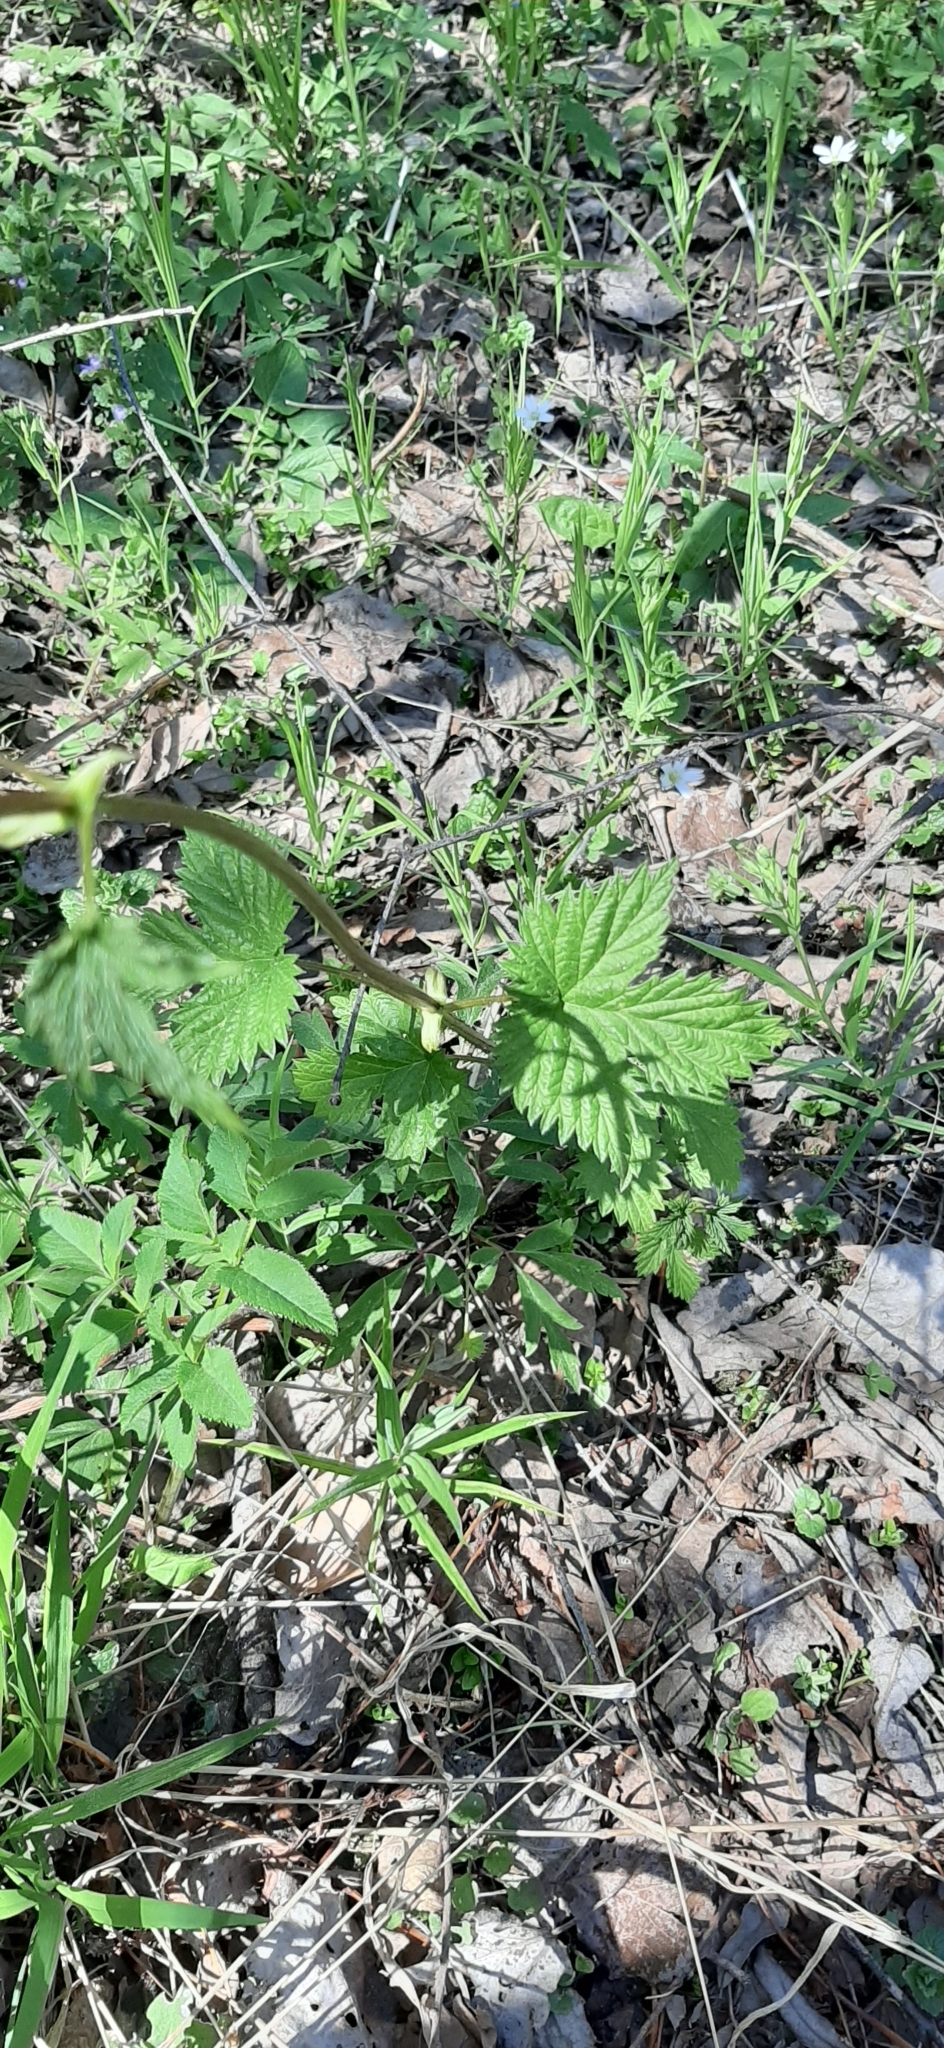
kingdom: Plantae
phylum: Tracheophyta
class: Magnoliopsida
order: Rosales
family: Cannabaceae
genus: Humulus
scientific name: Humulus lupulus
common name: Hop
